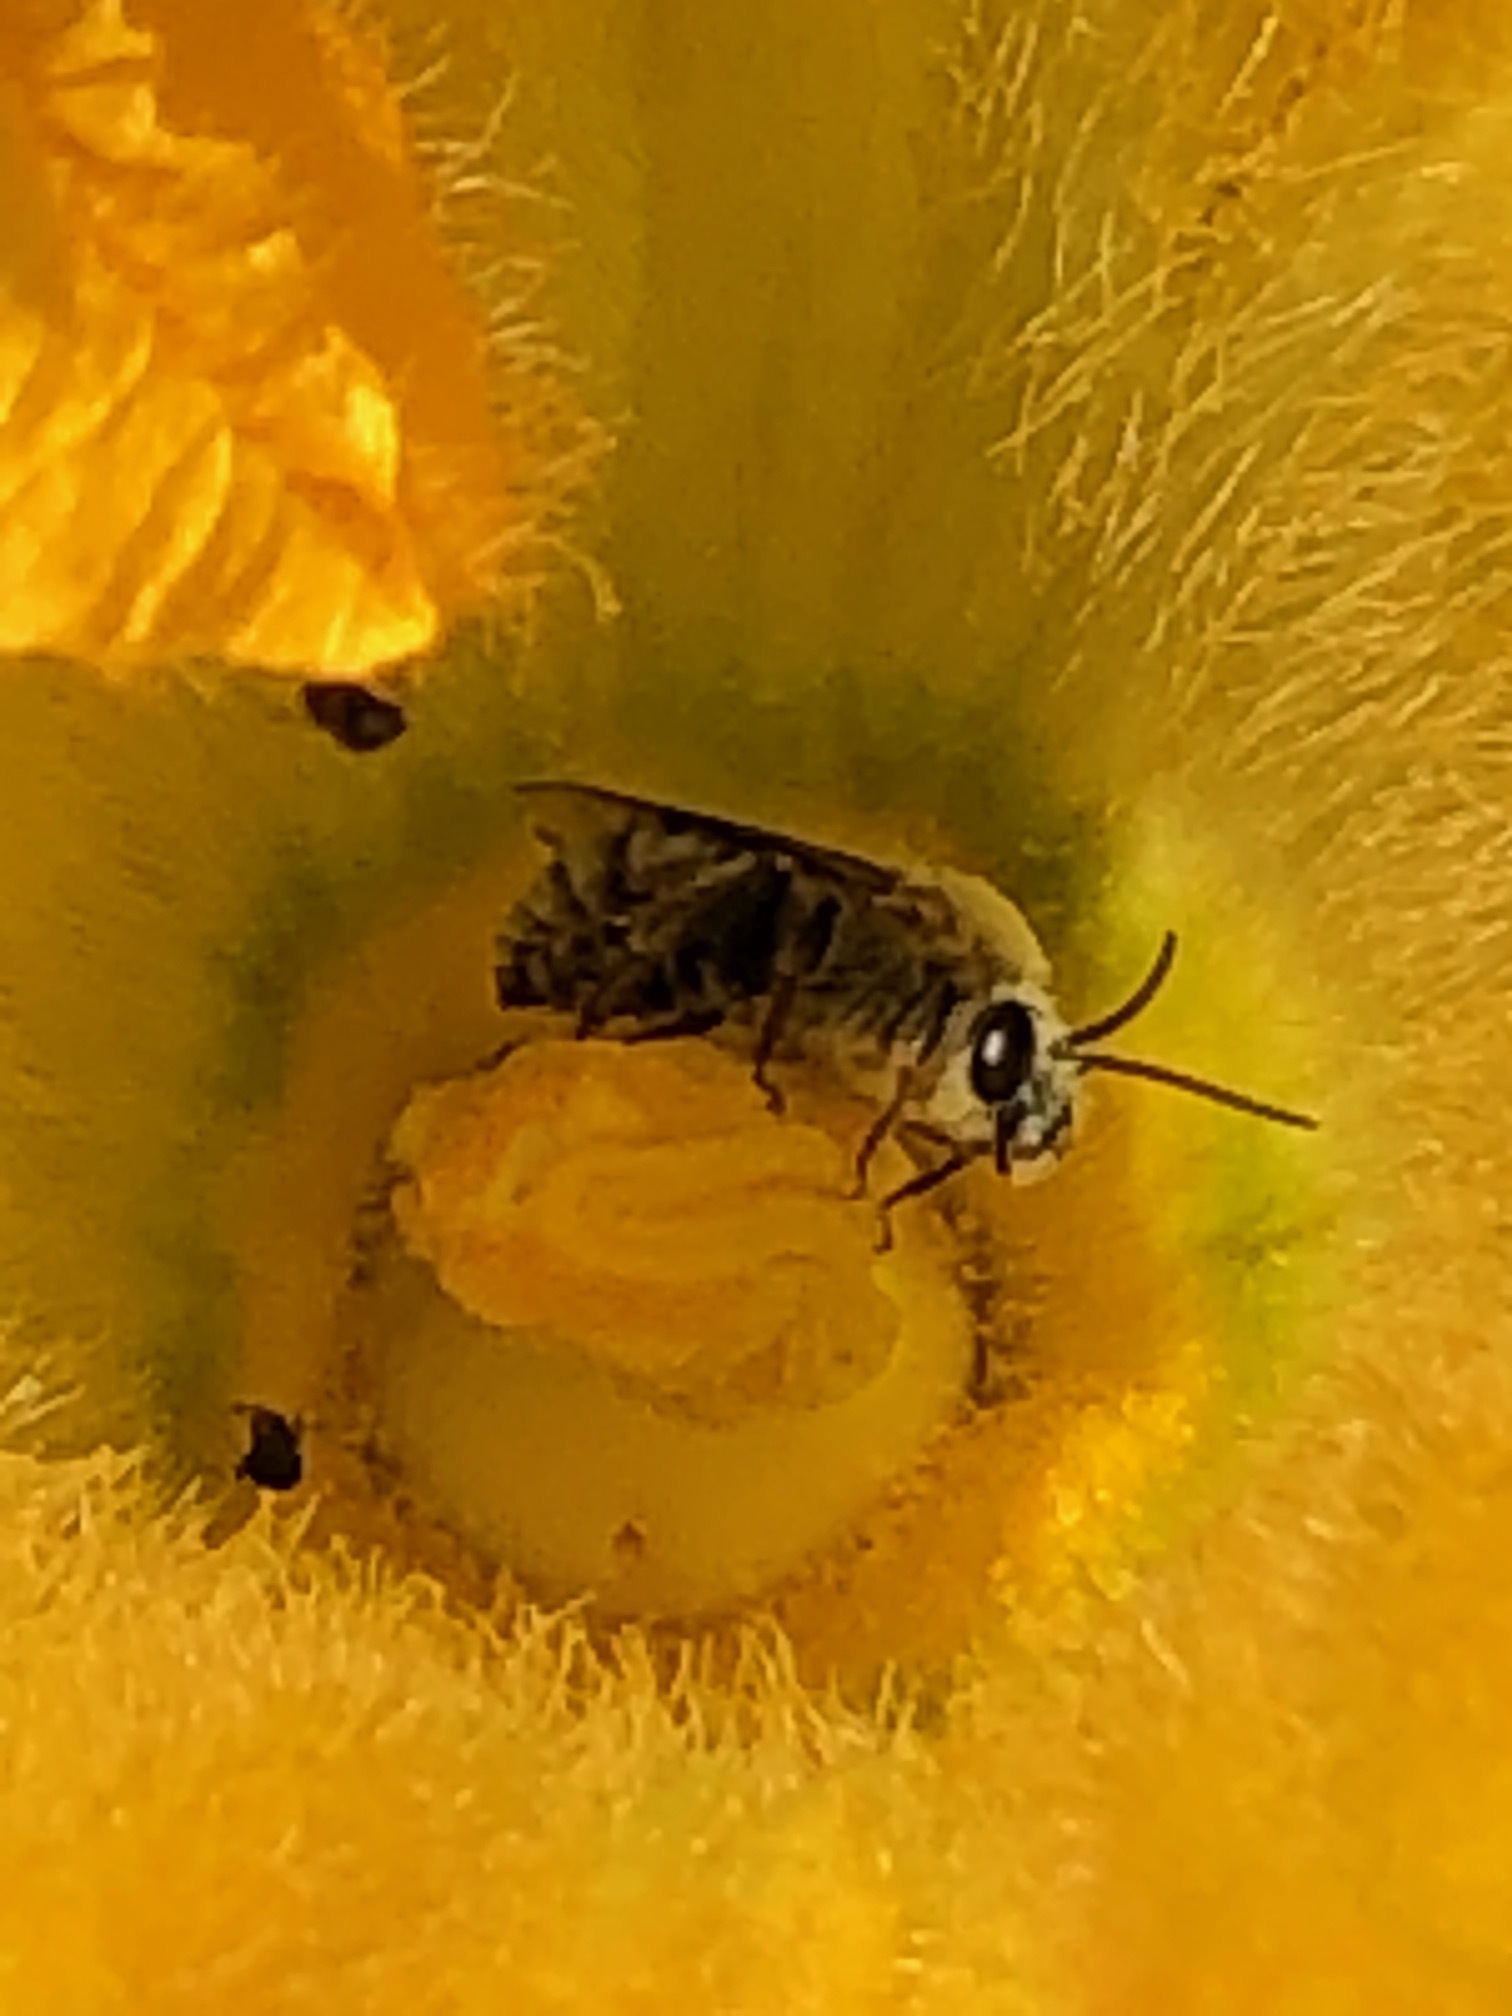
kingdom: Animalia
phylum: Arthropoda
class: Insecta
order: Hymenoptera
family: Apidae
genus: Peponapis
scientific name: Peponapis pruinosa
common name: Pruinose squash bee
